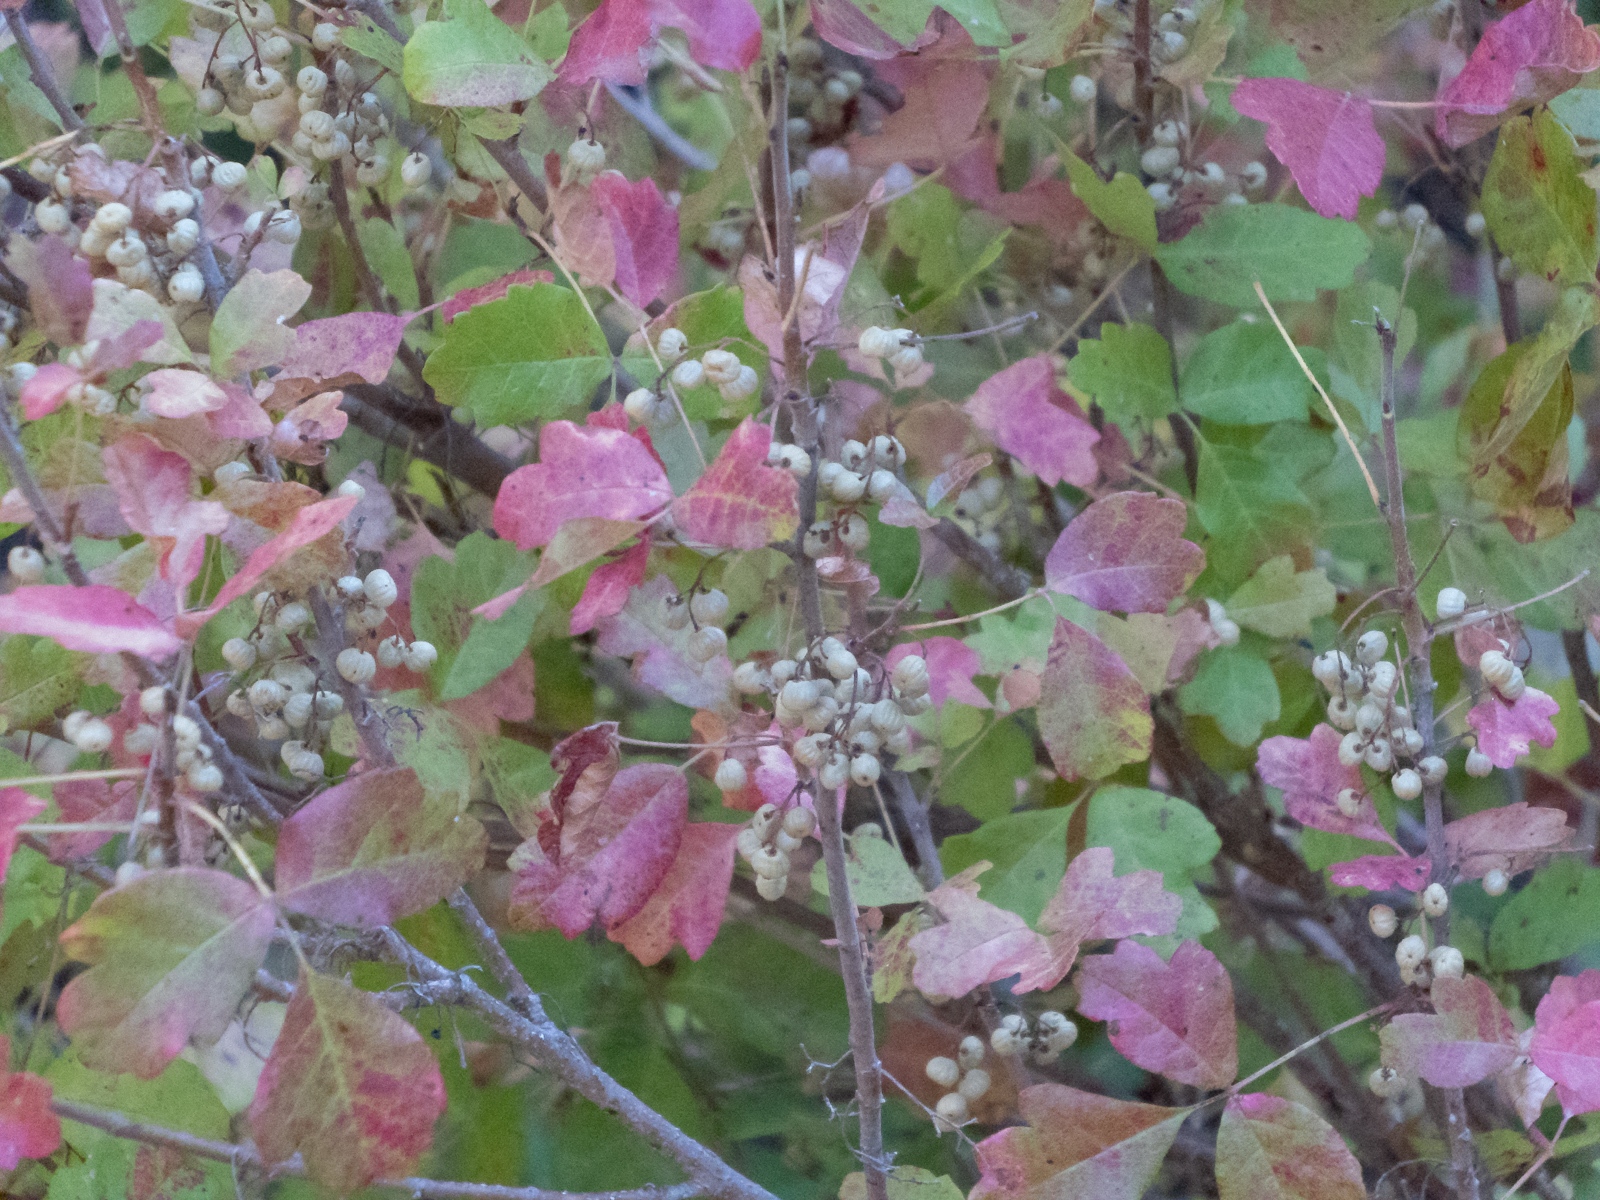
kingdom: Plantae
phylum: Tracheophyta
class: Magnoliopsida
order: Sapindales
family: Anacardiaceae
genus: Toxicodendron
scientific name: Toxicodendron diversilobum
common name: Pacific poison-oak
